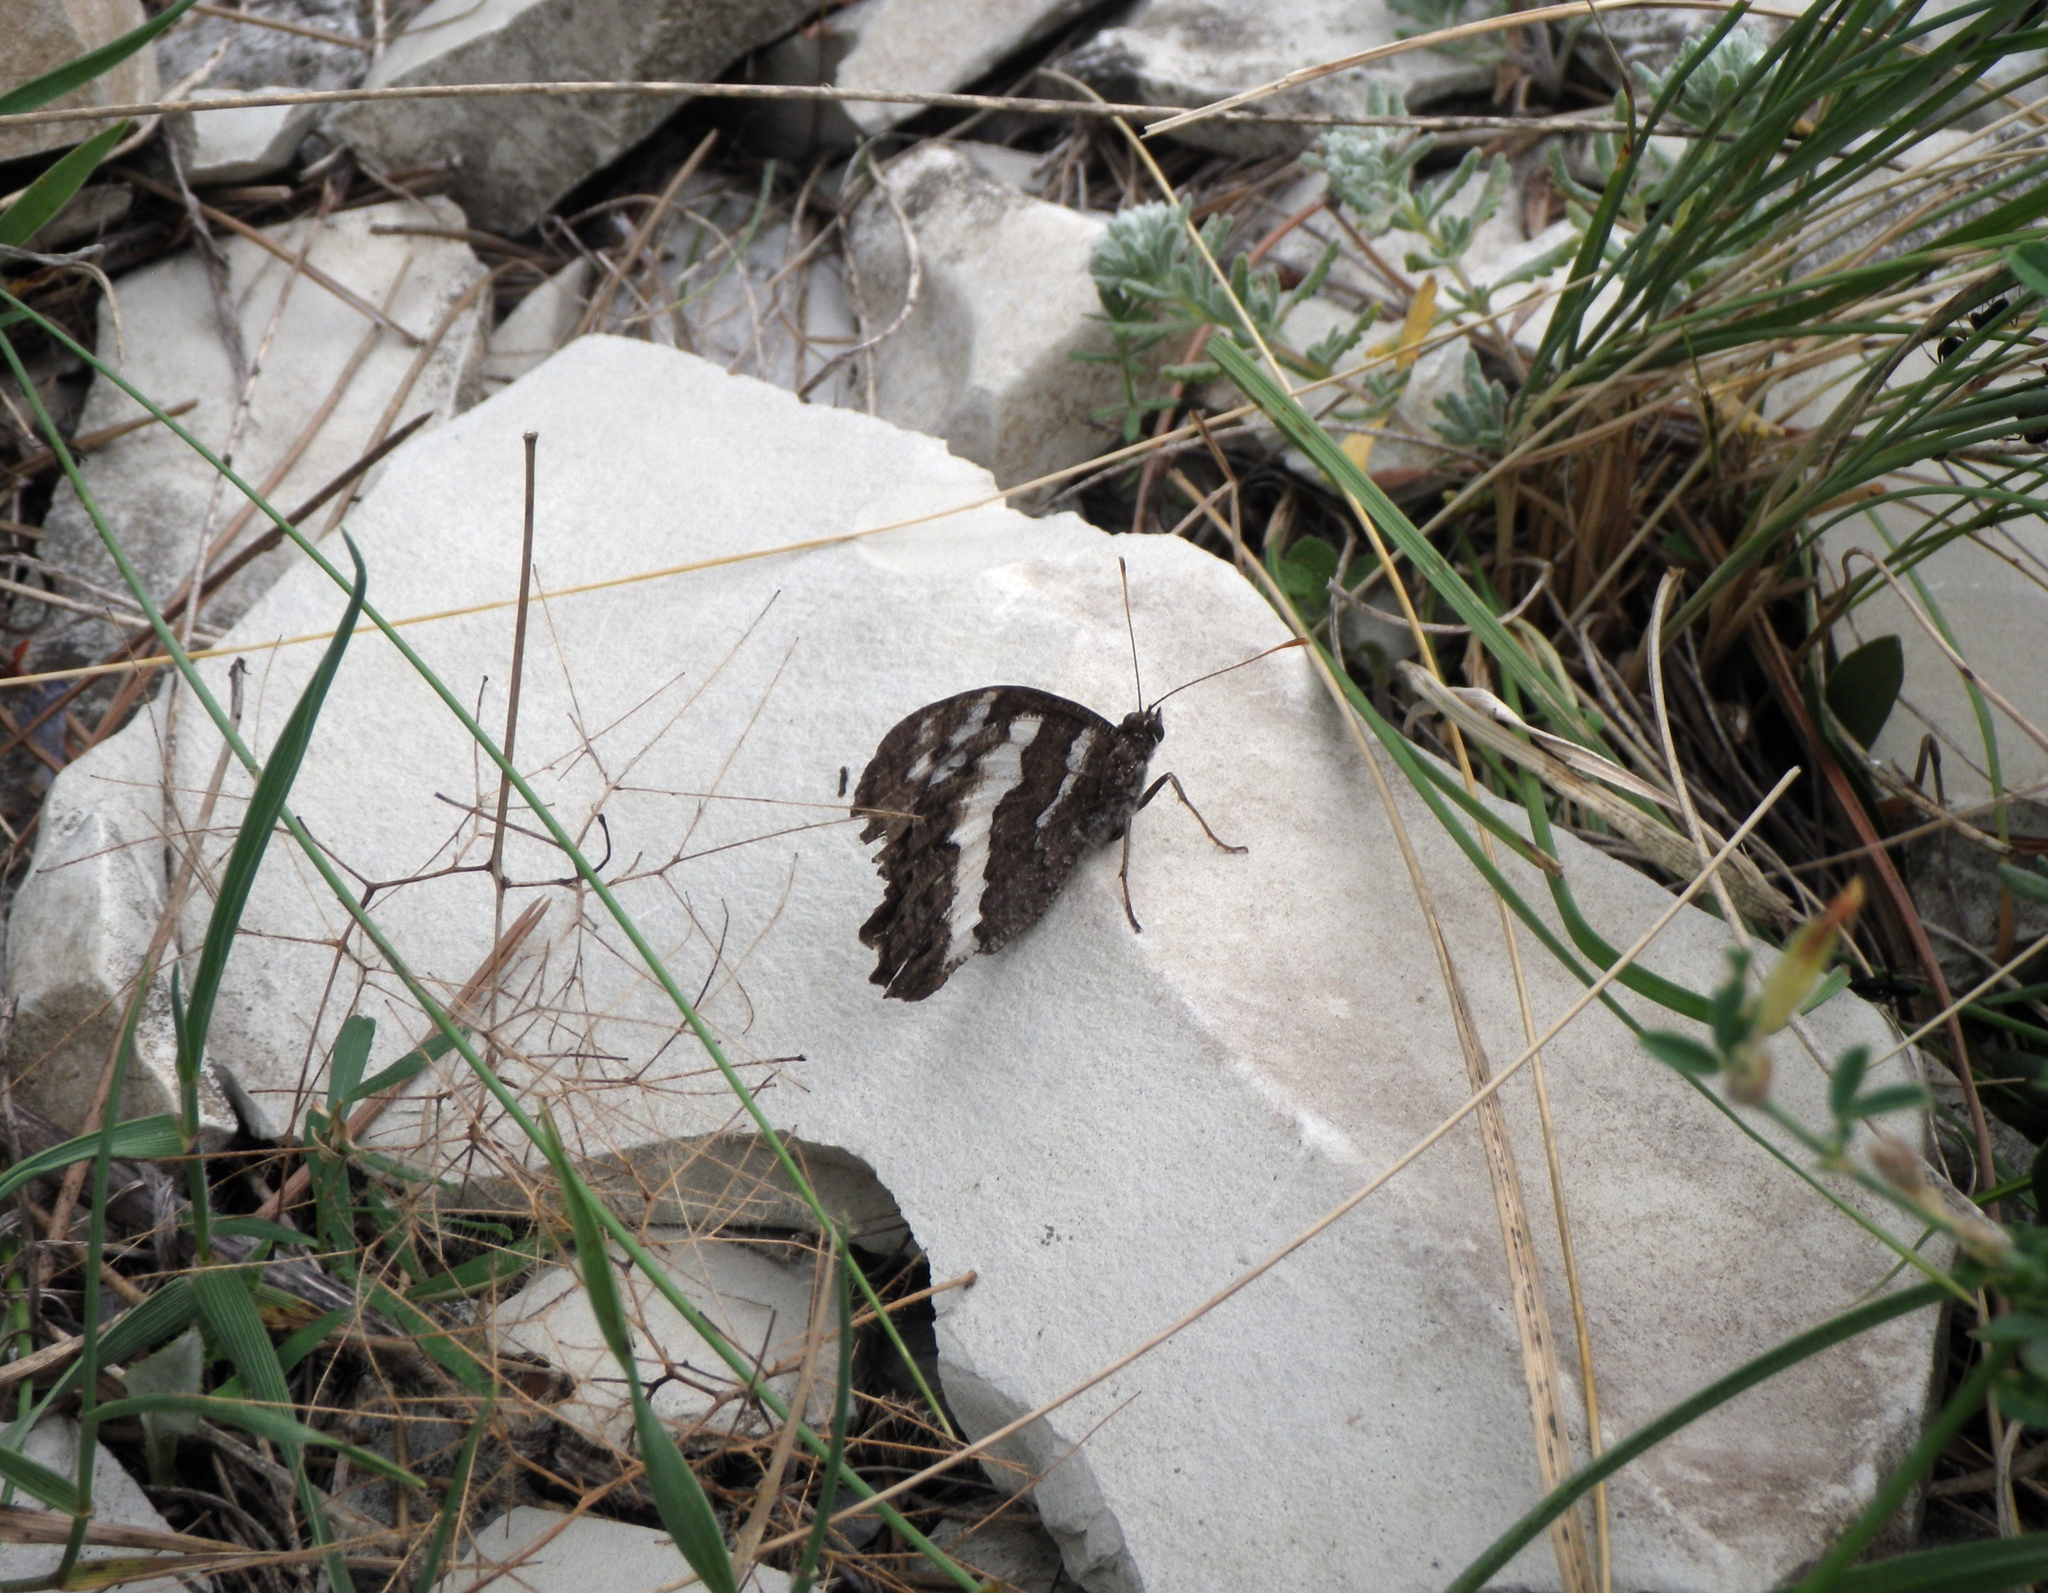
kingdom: Animalia
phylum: Arthropoda
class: Insecta
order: Lepidoptera
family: Lycaenidae
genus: Loweia
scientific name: Loweia tityrus
